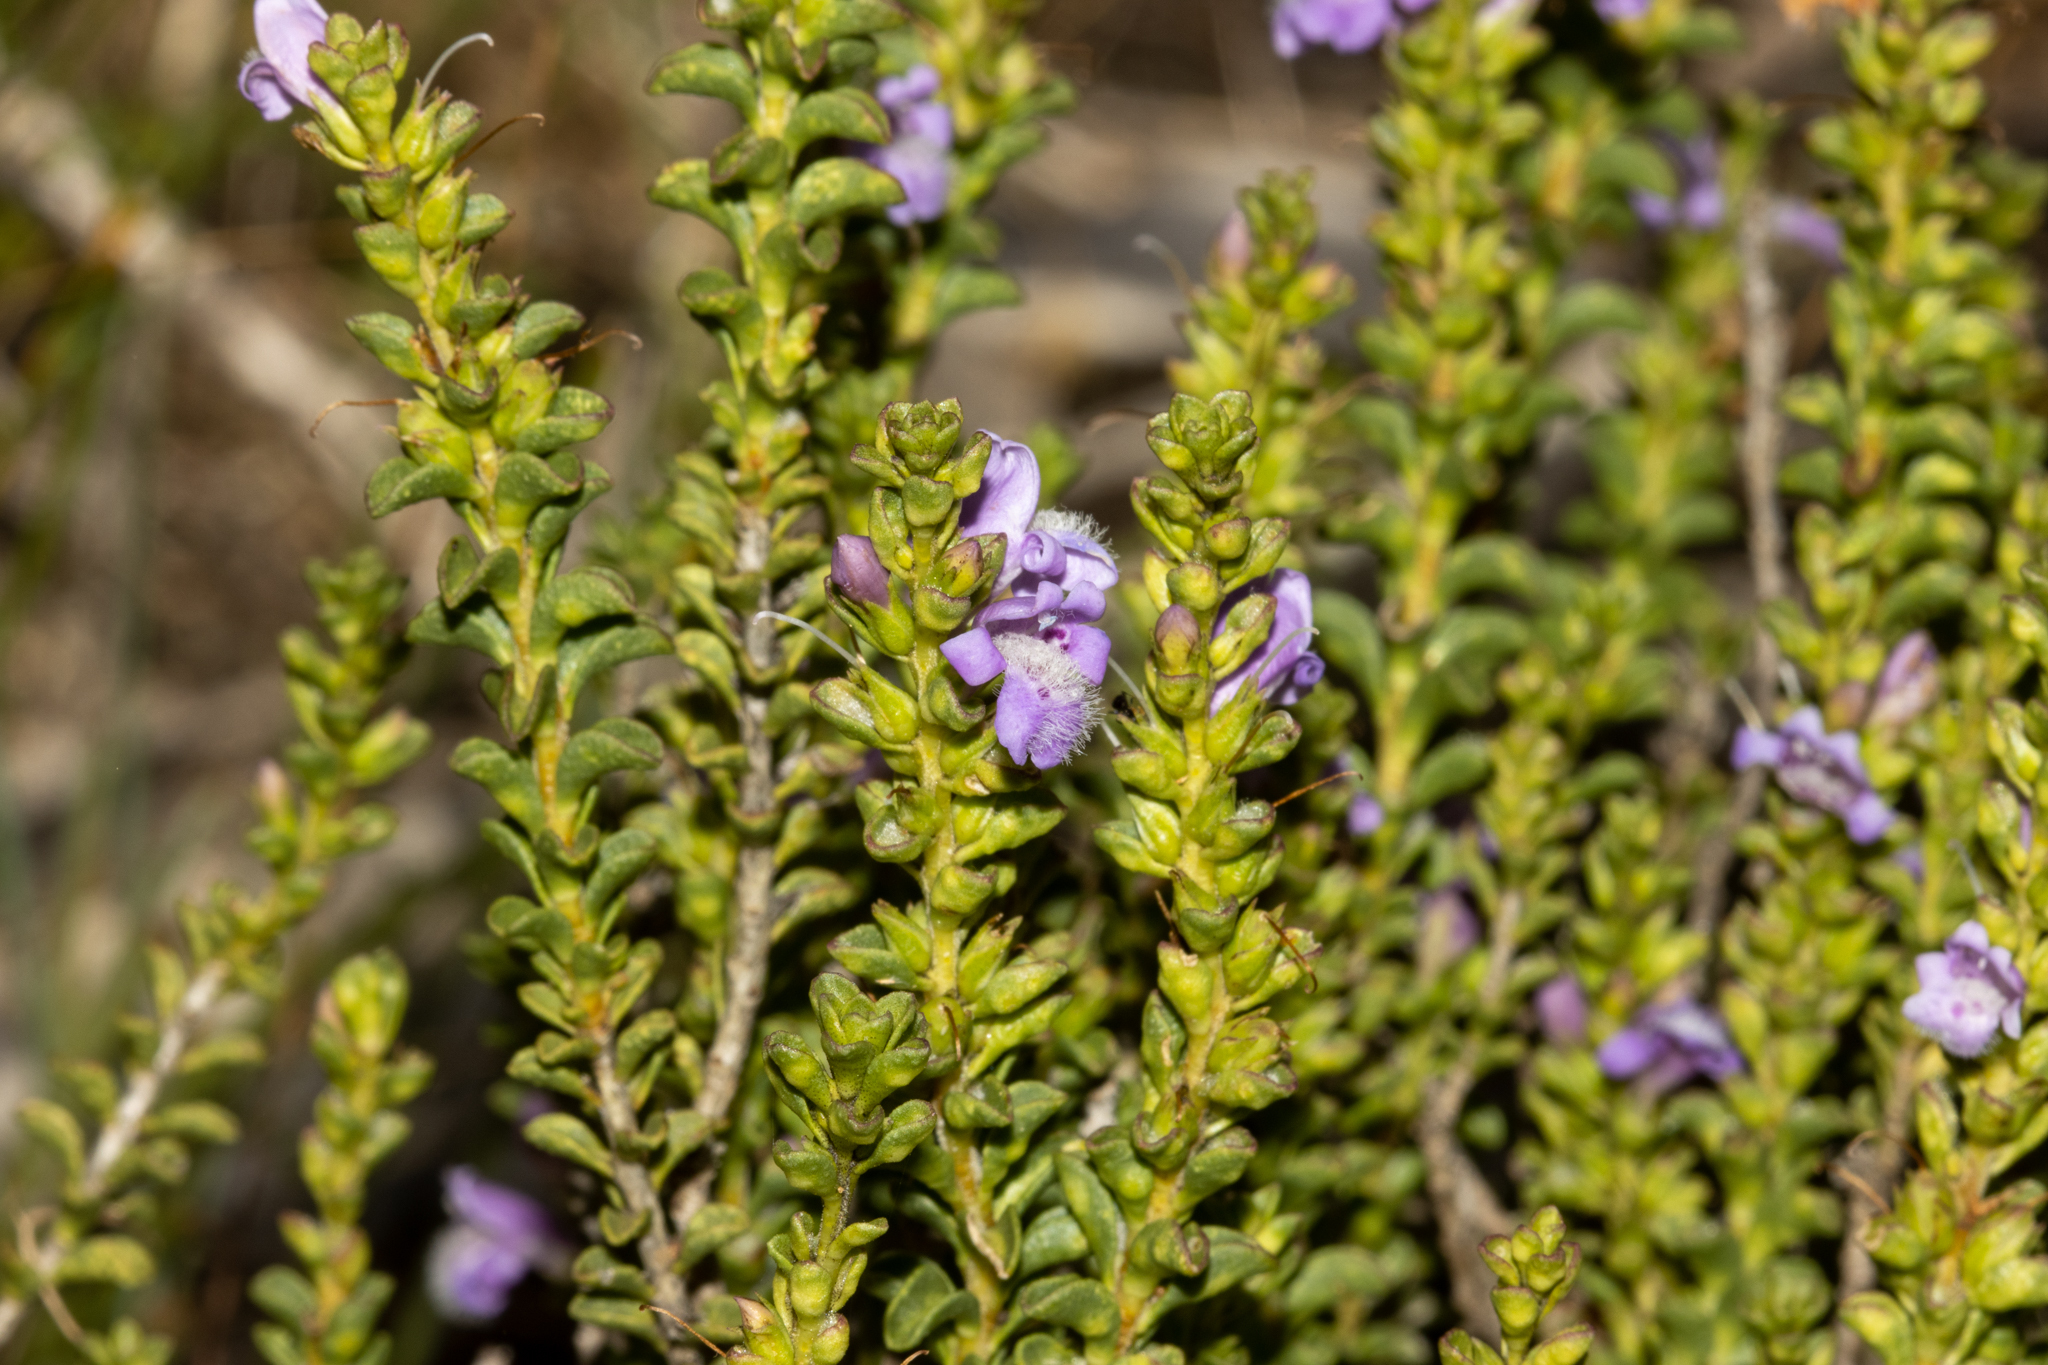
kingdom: Plantae
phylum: Tracheophyta
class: Magnoliopsida
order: Lamiales
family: Scrophulariaceae
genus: Eremophila
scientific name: Eremophila crassifolia
